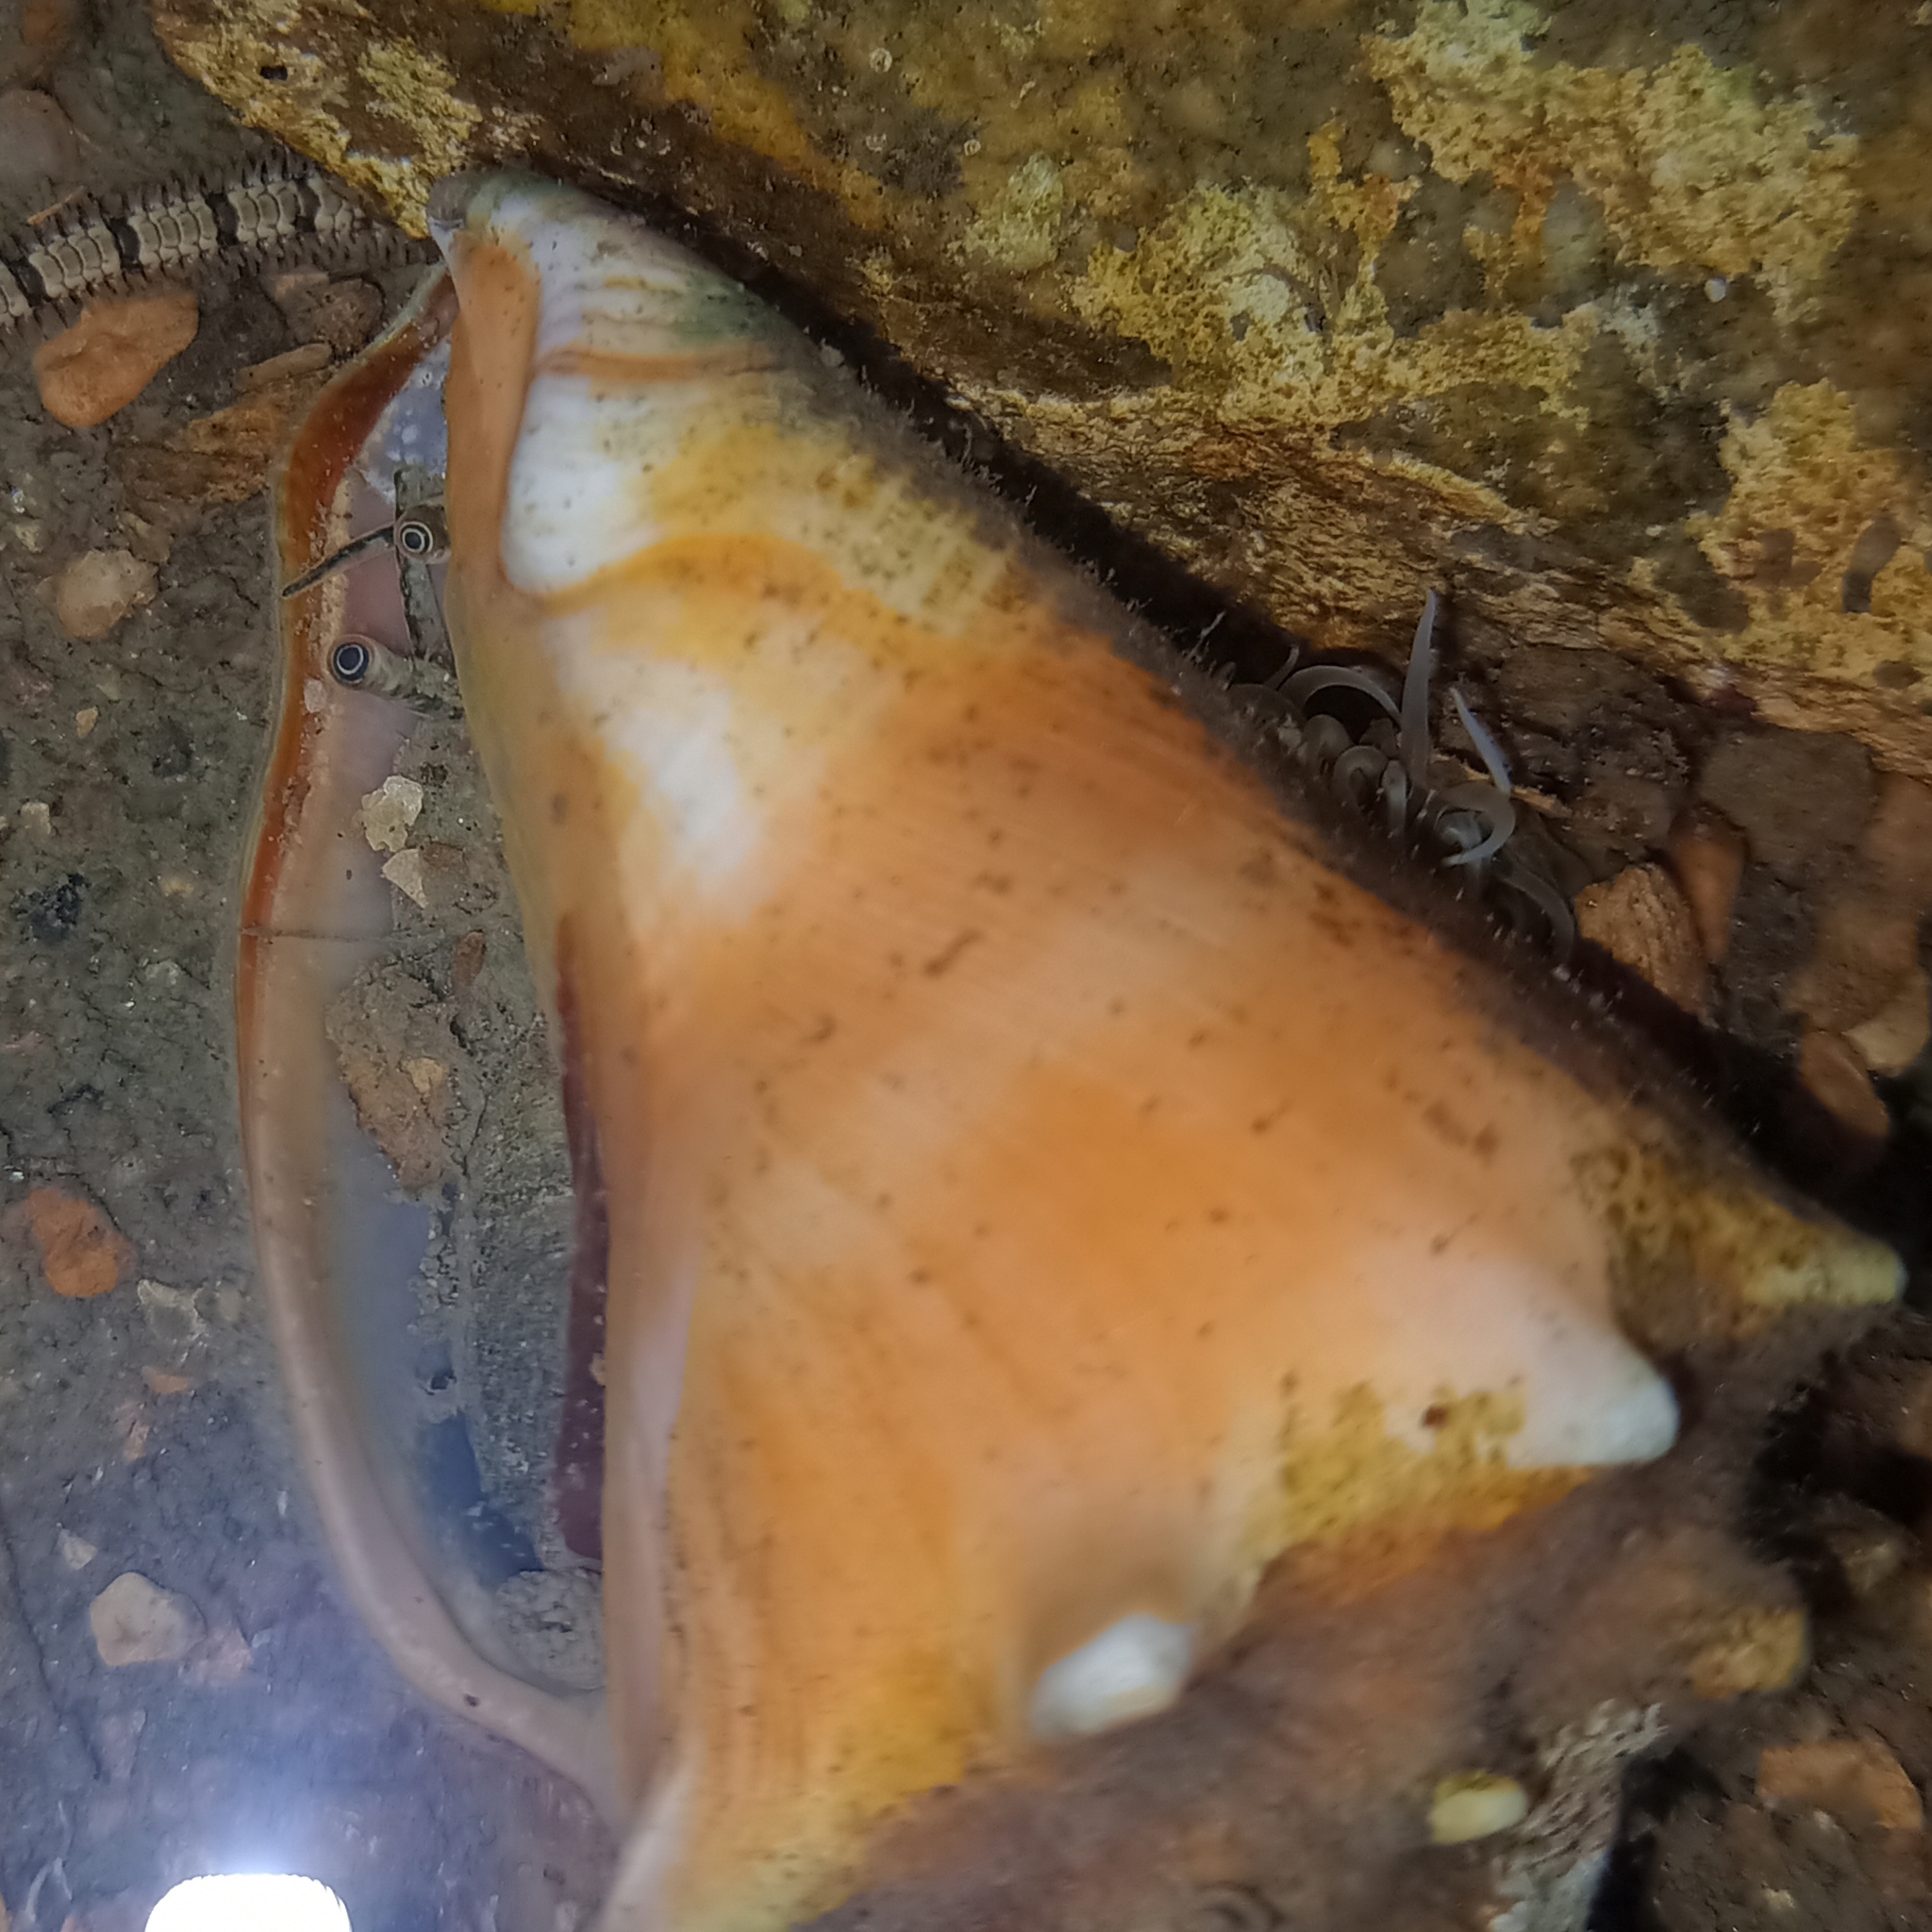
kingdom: Animalia
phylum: Mollusca
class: Gastropoda
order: Littorinimorpha
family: Strombidae
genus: Strombus
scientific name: Strombus pugilis
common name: West indian fighting conch
